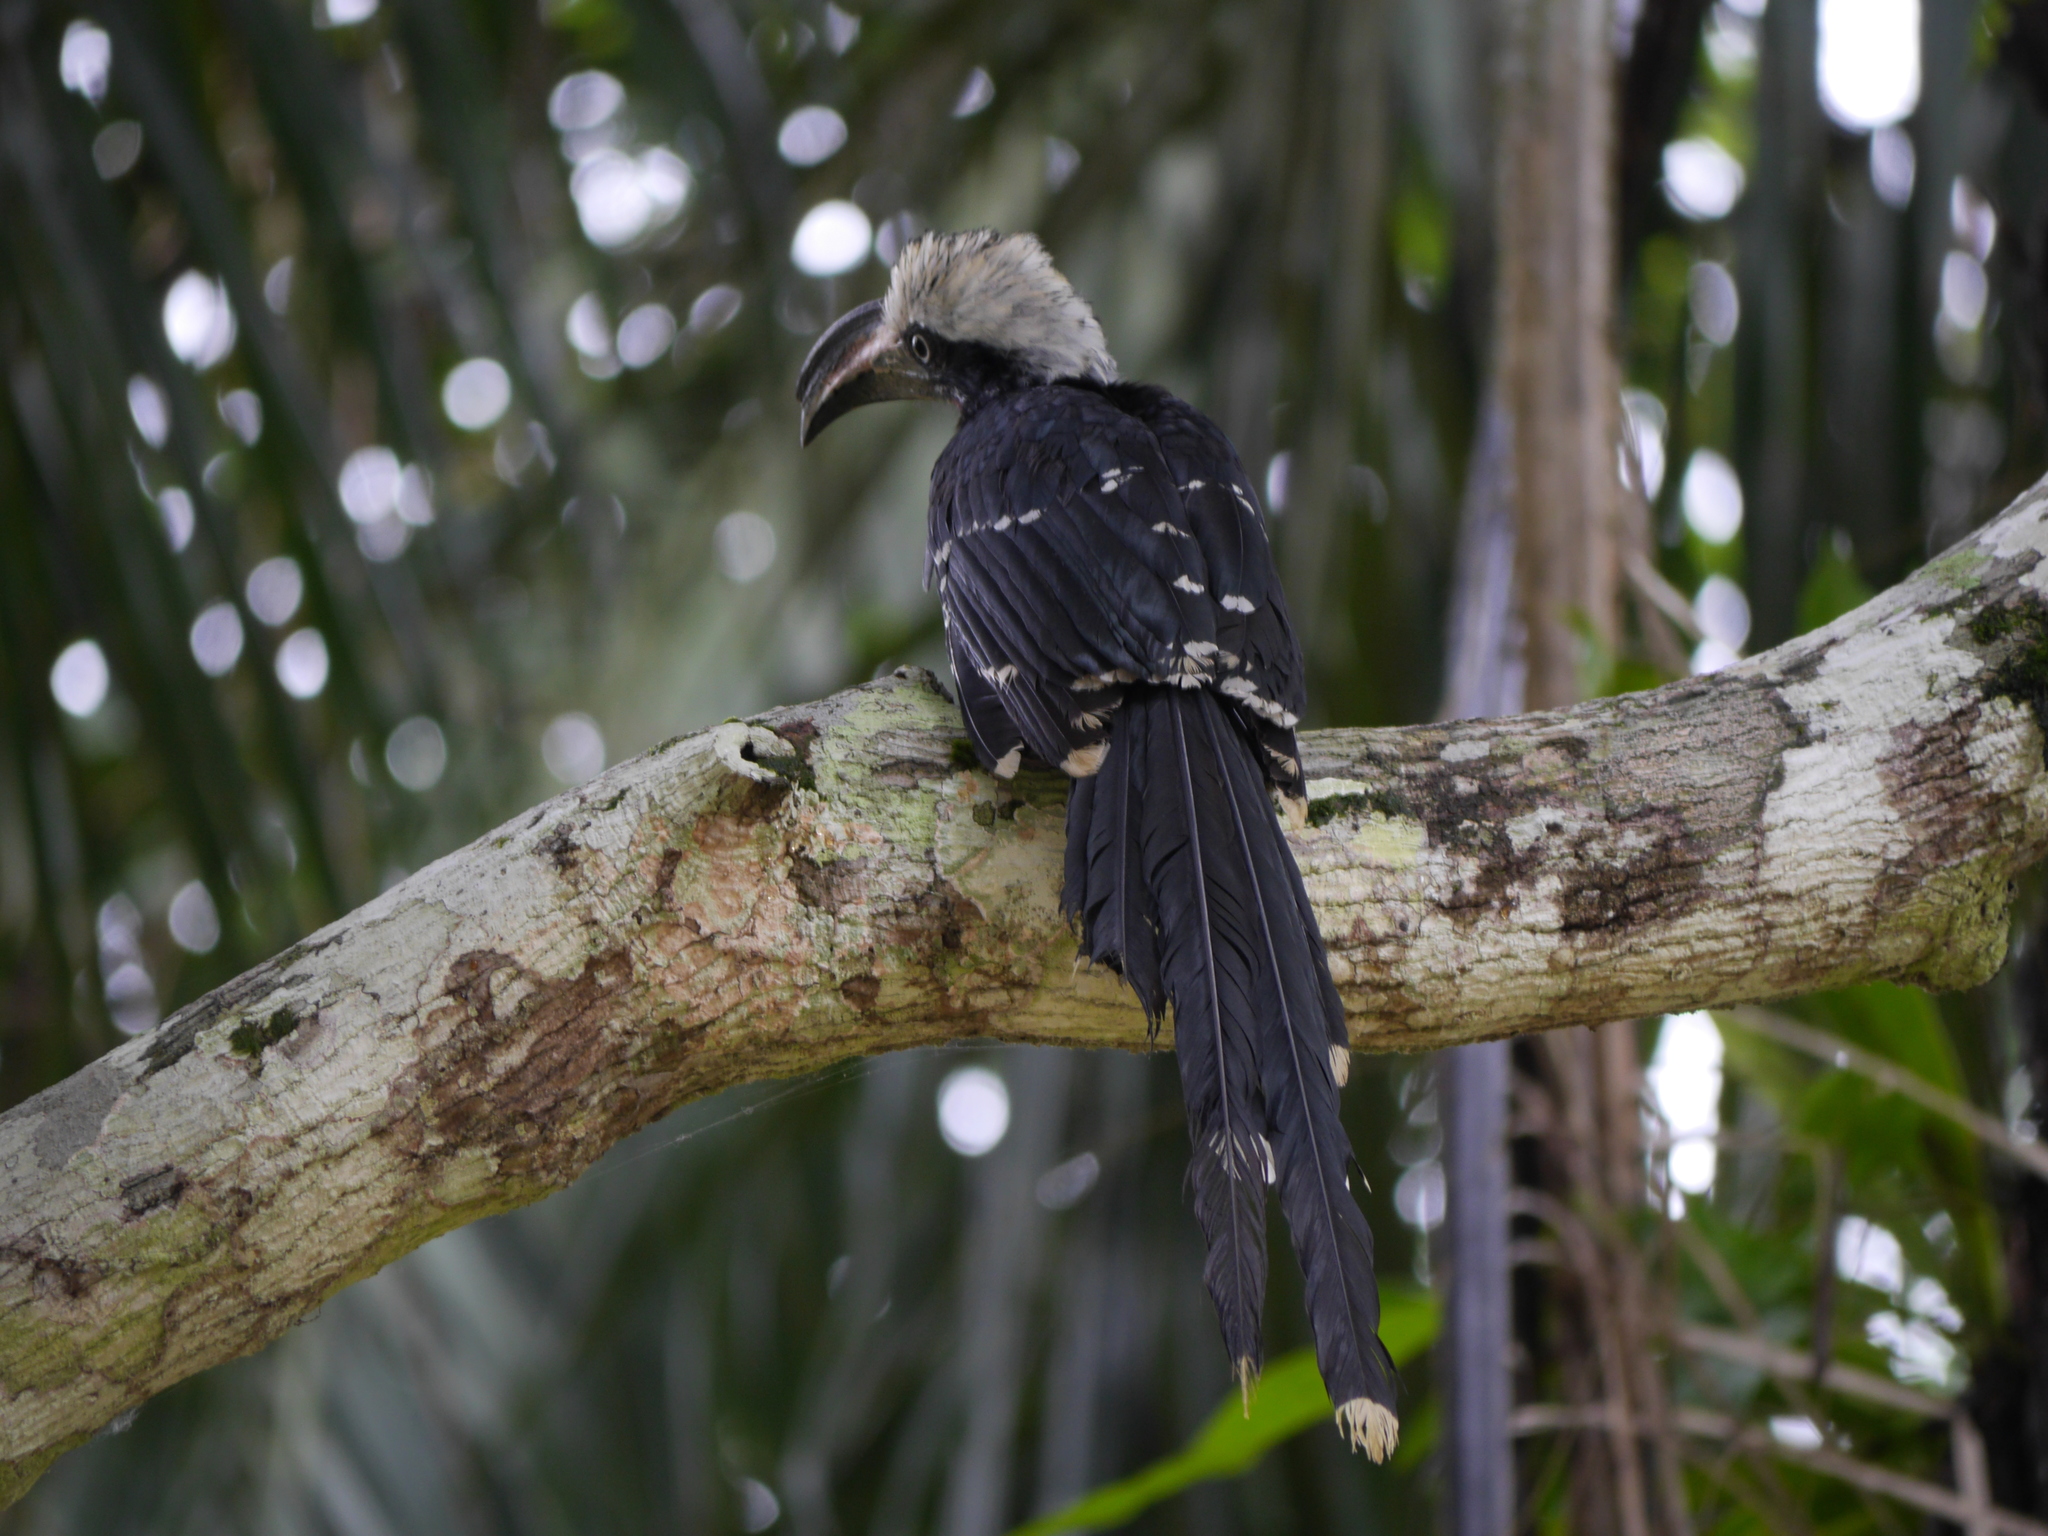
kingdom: Animalia
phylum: Chordata
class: Aves
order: Bucerotiformes
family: Bucerotidae
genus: Horizocerus
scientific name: Horizocerus albocristatus
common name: White-crested hornbill
